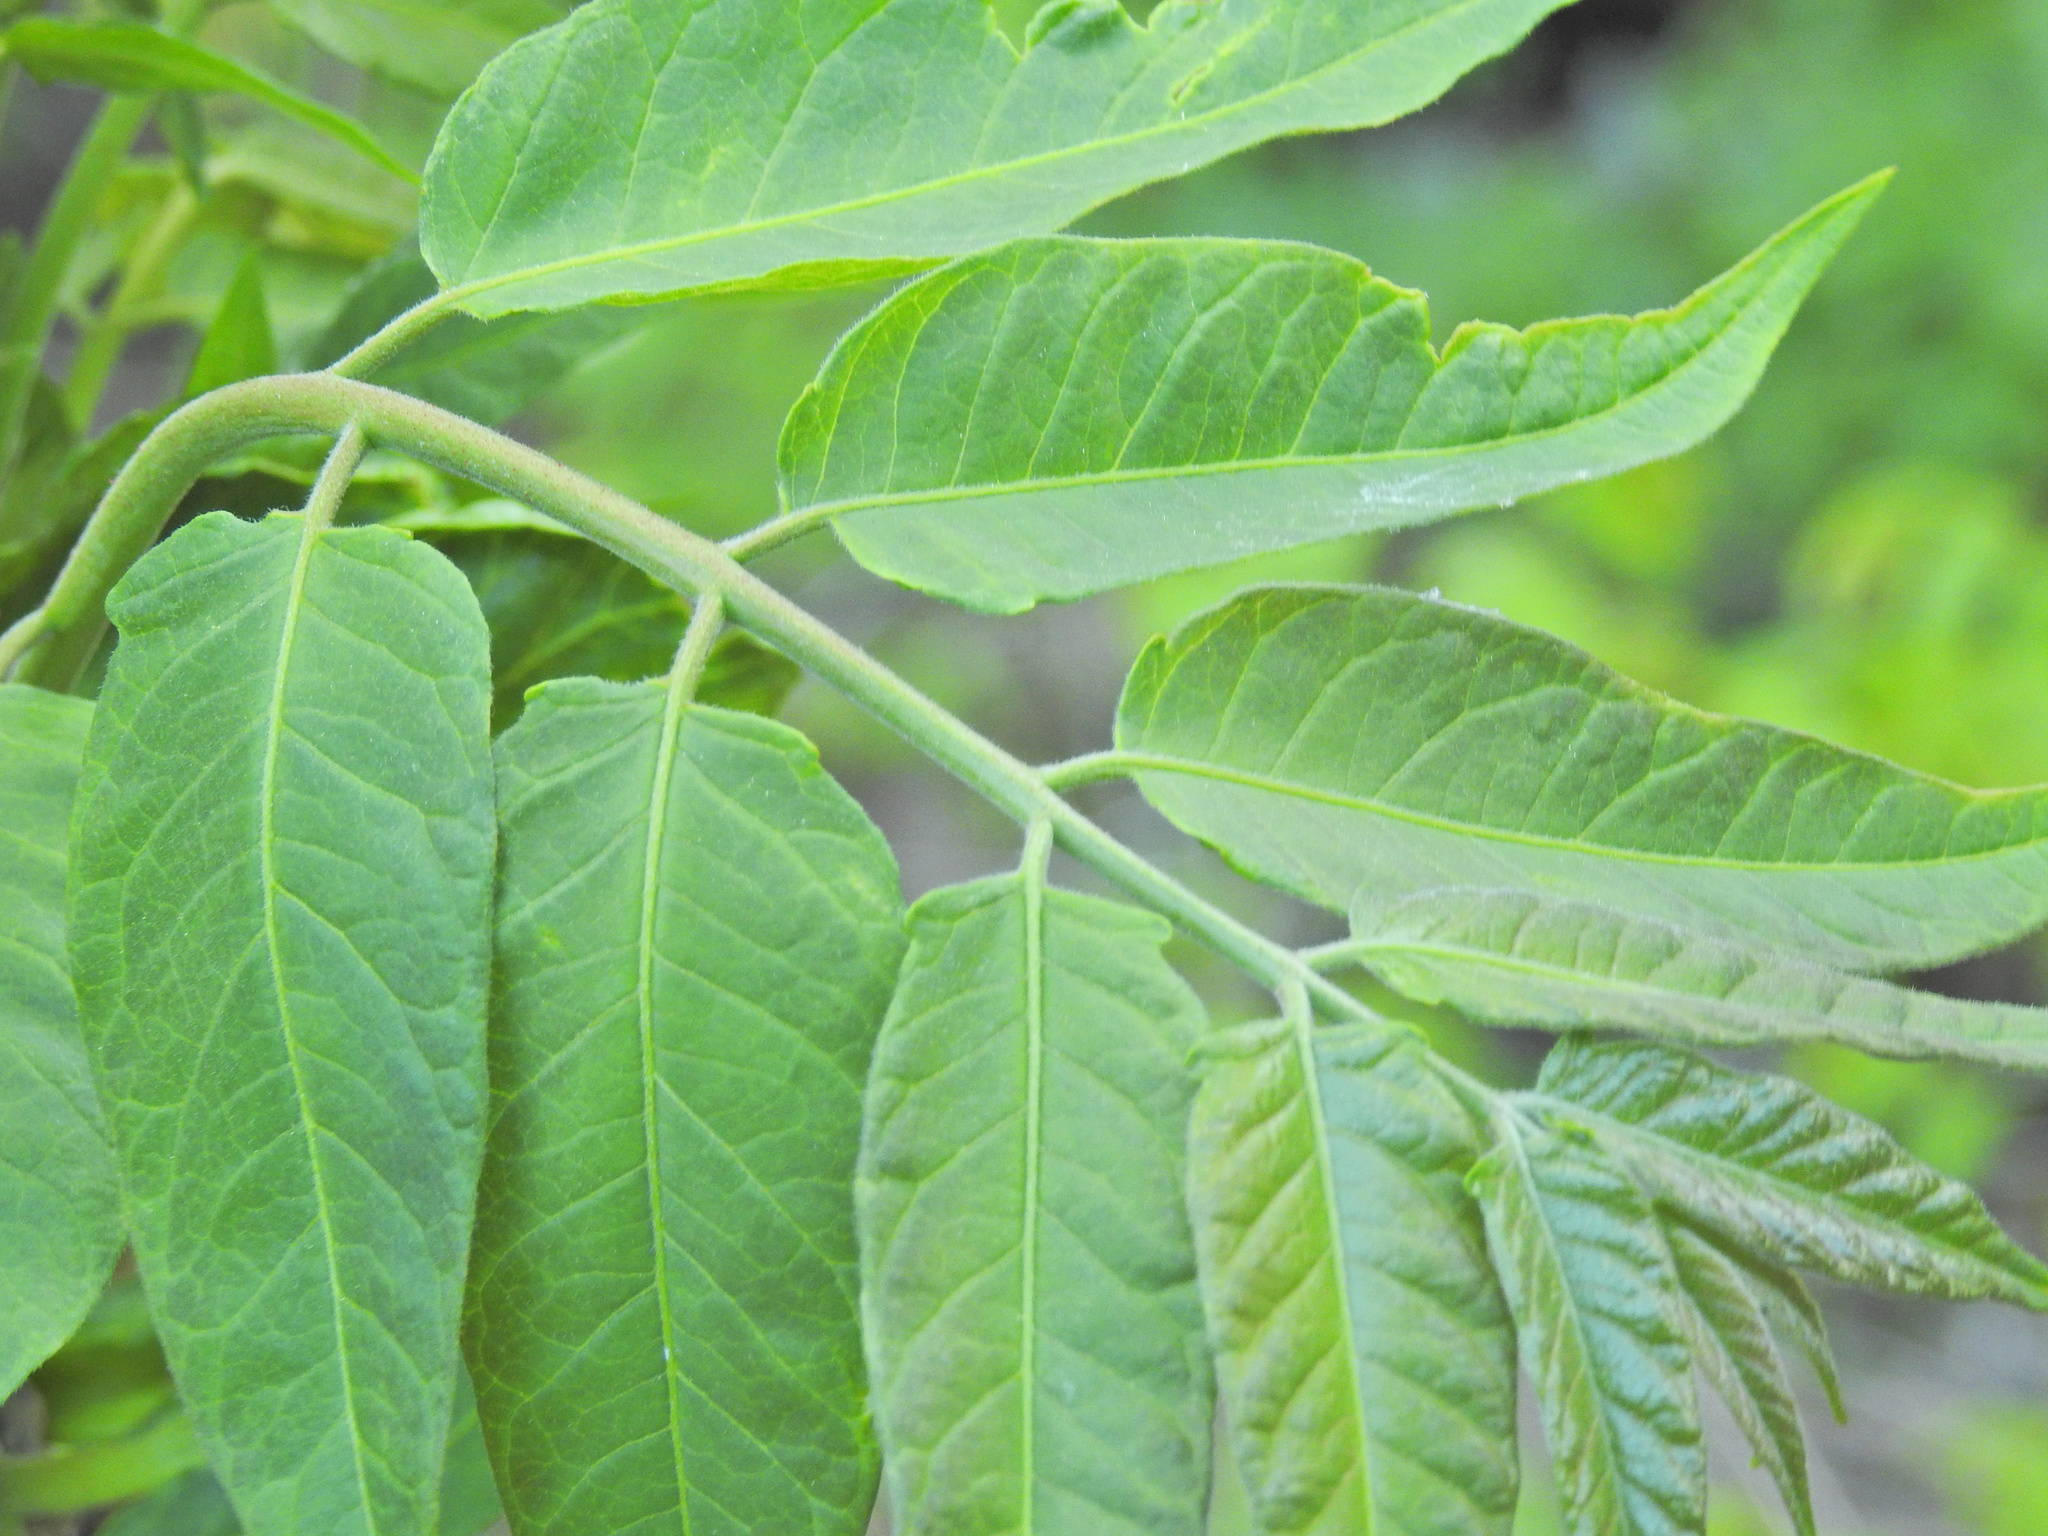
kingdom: Plantae
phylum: Tracheophyta
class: Magnoliopsida
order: Sapindales
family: Simaroubaceae
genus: Ailanthus
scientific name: Ailanthus altissima
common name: Tree-of-heaven
